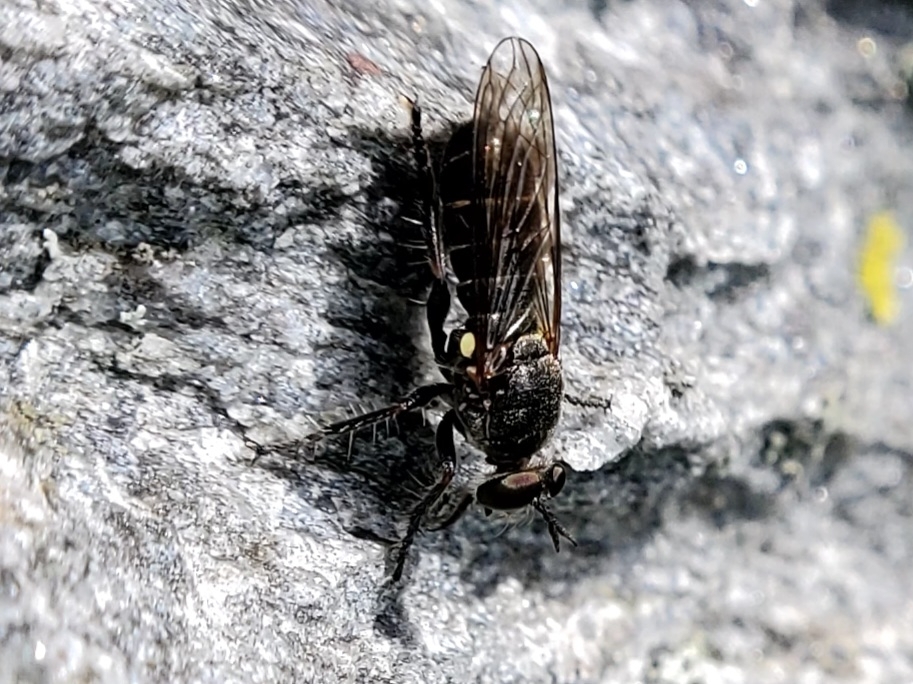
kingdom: Animalia
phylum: Arthropoda
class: Insecta
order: Diptera
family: Asilidae
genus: Atomosia
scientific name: Atomosia puella
